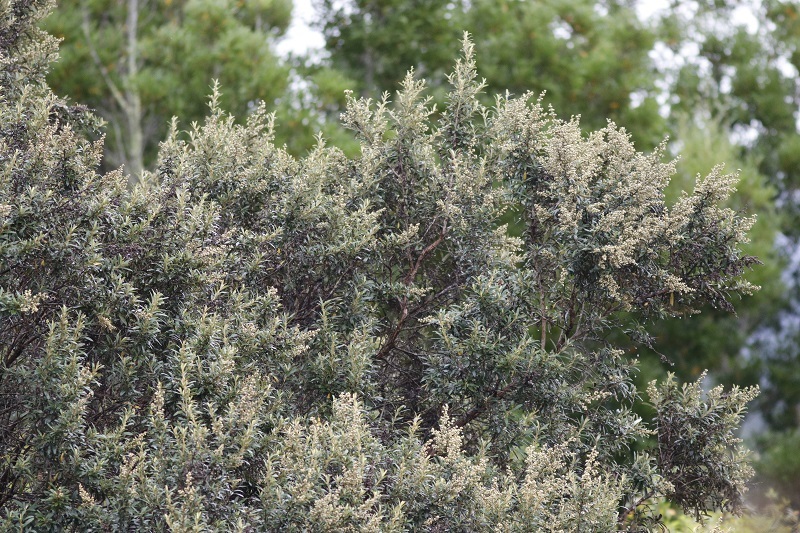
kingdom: Plantae
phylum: Tracheophyta
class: Magnoliopsida
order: Asterales
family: Asteraceae
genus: Tarchonanthus
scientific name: Tarchonanthus littoralis
